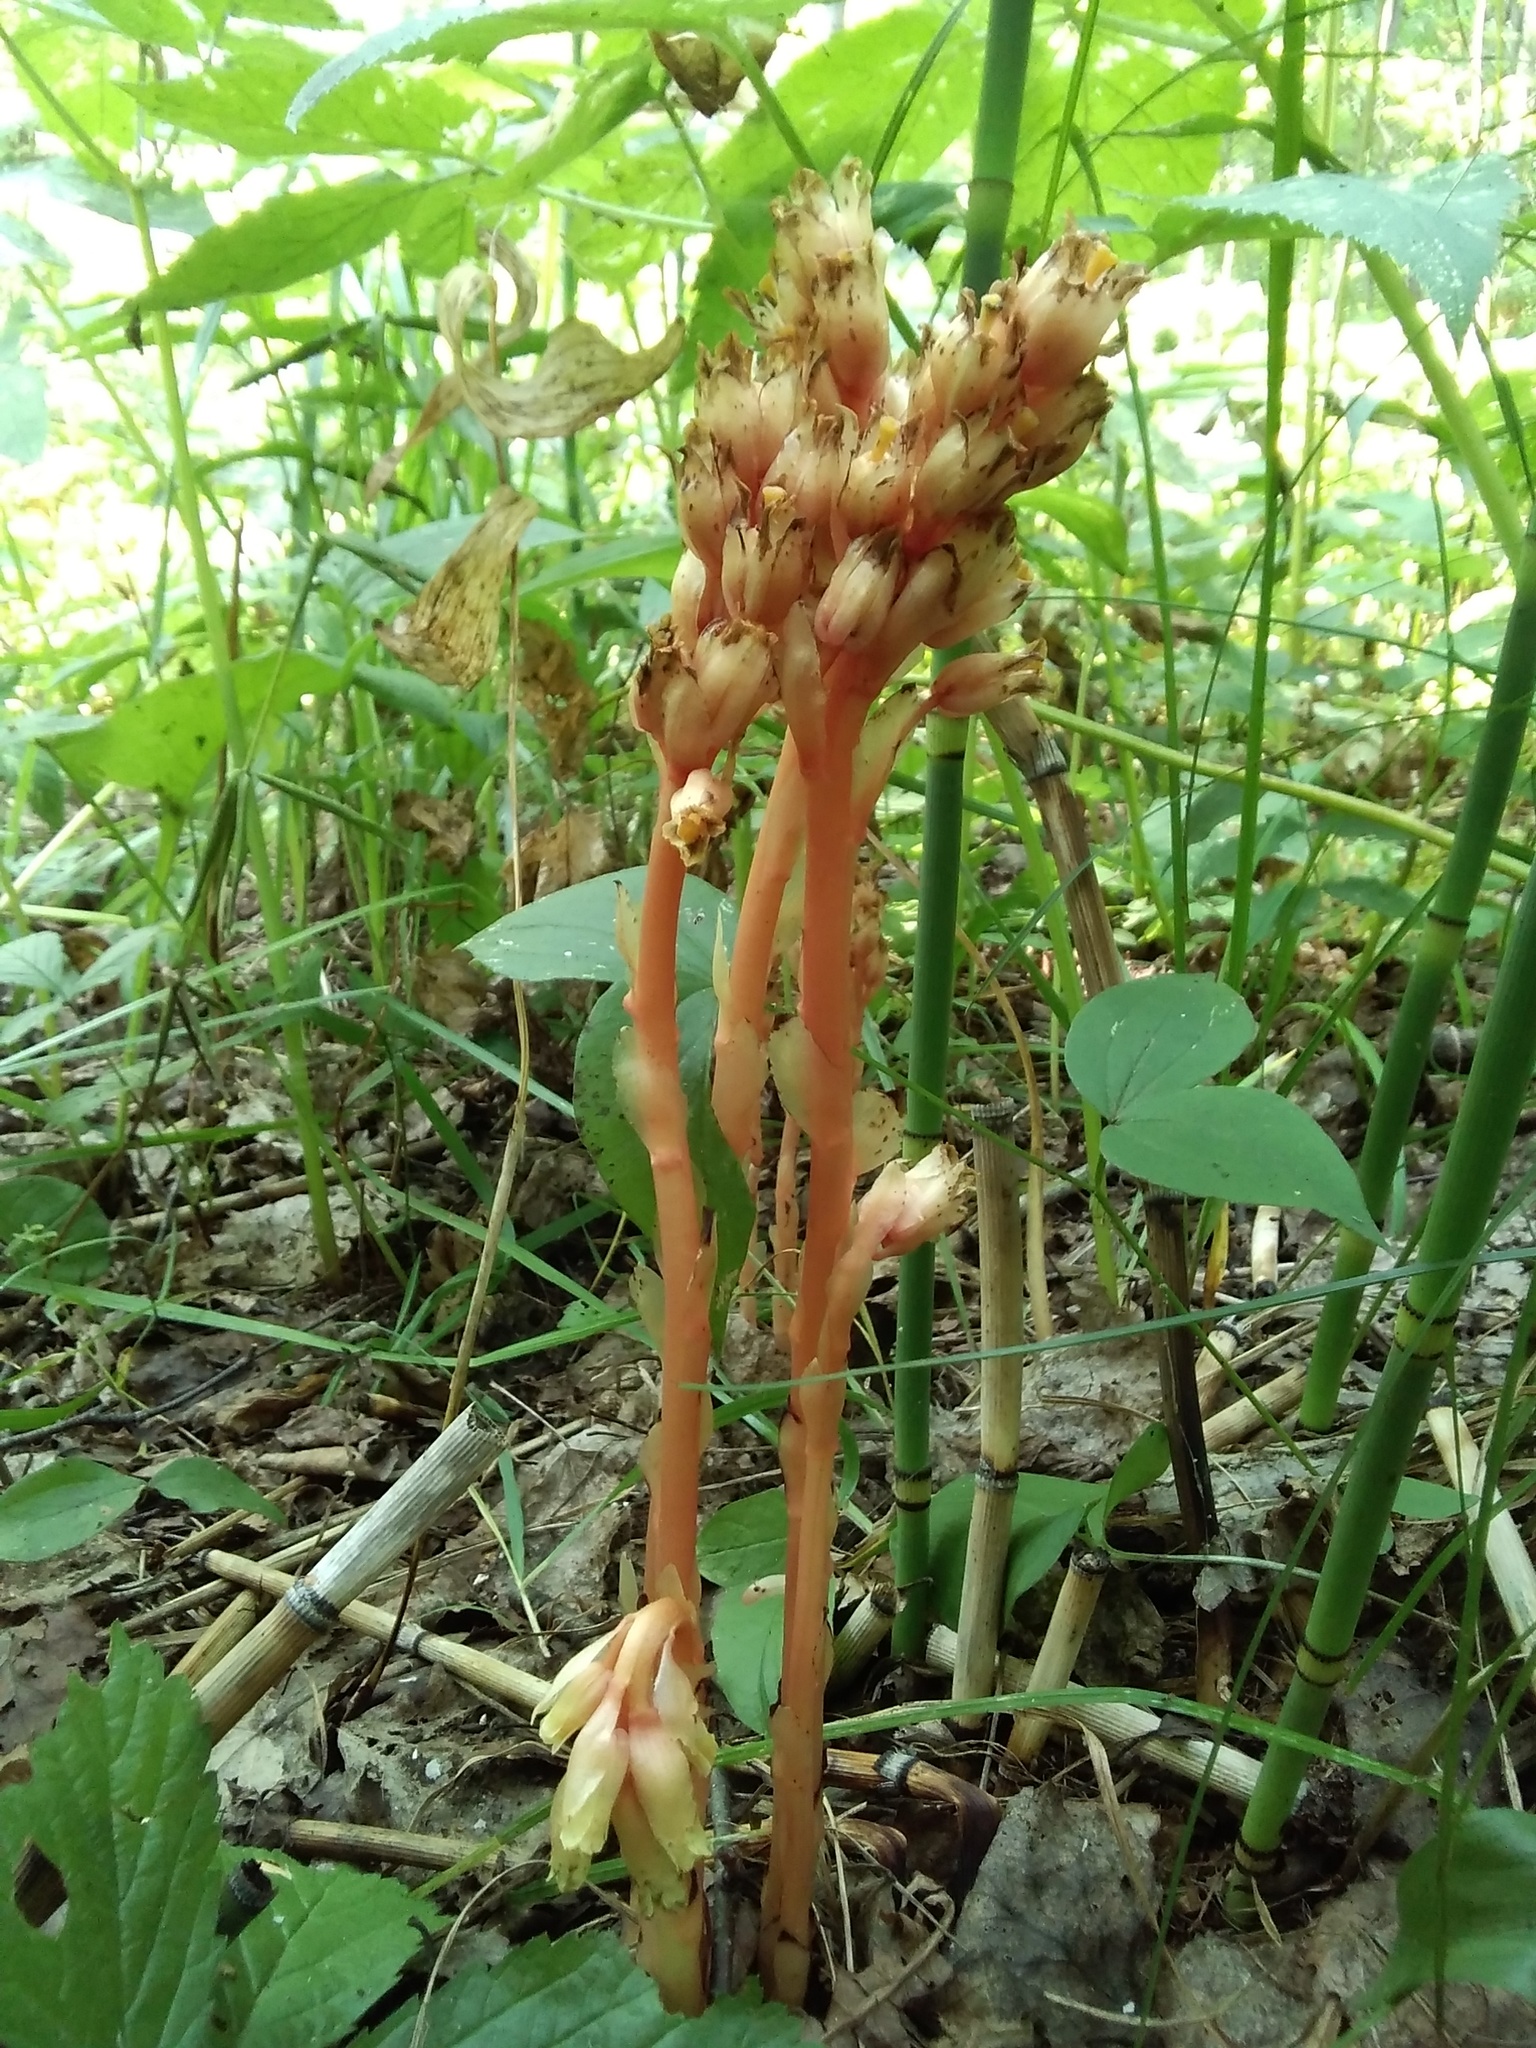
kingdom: Plantae
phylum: Tracheophyta
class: Magnoliopsida
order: Ericales
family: Ericaceae
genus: Hypopitys
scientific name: Hypopitys monotropa
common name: Yellow bird's-nest
